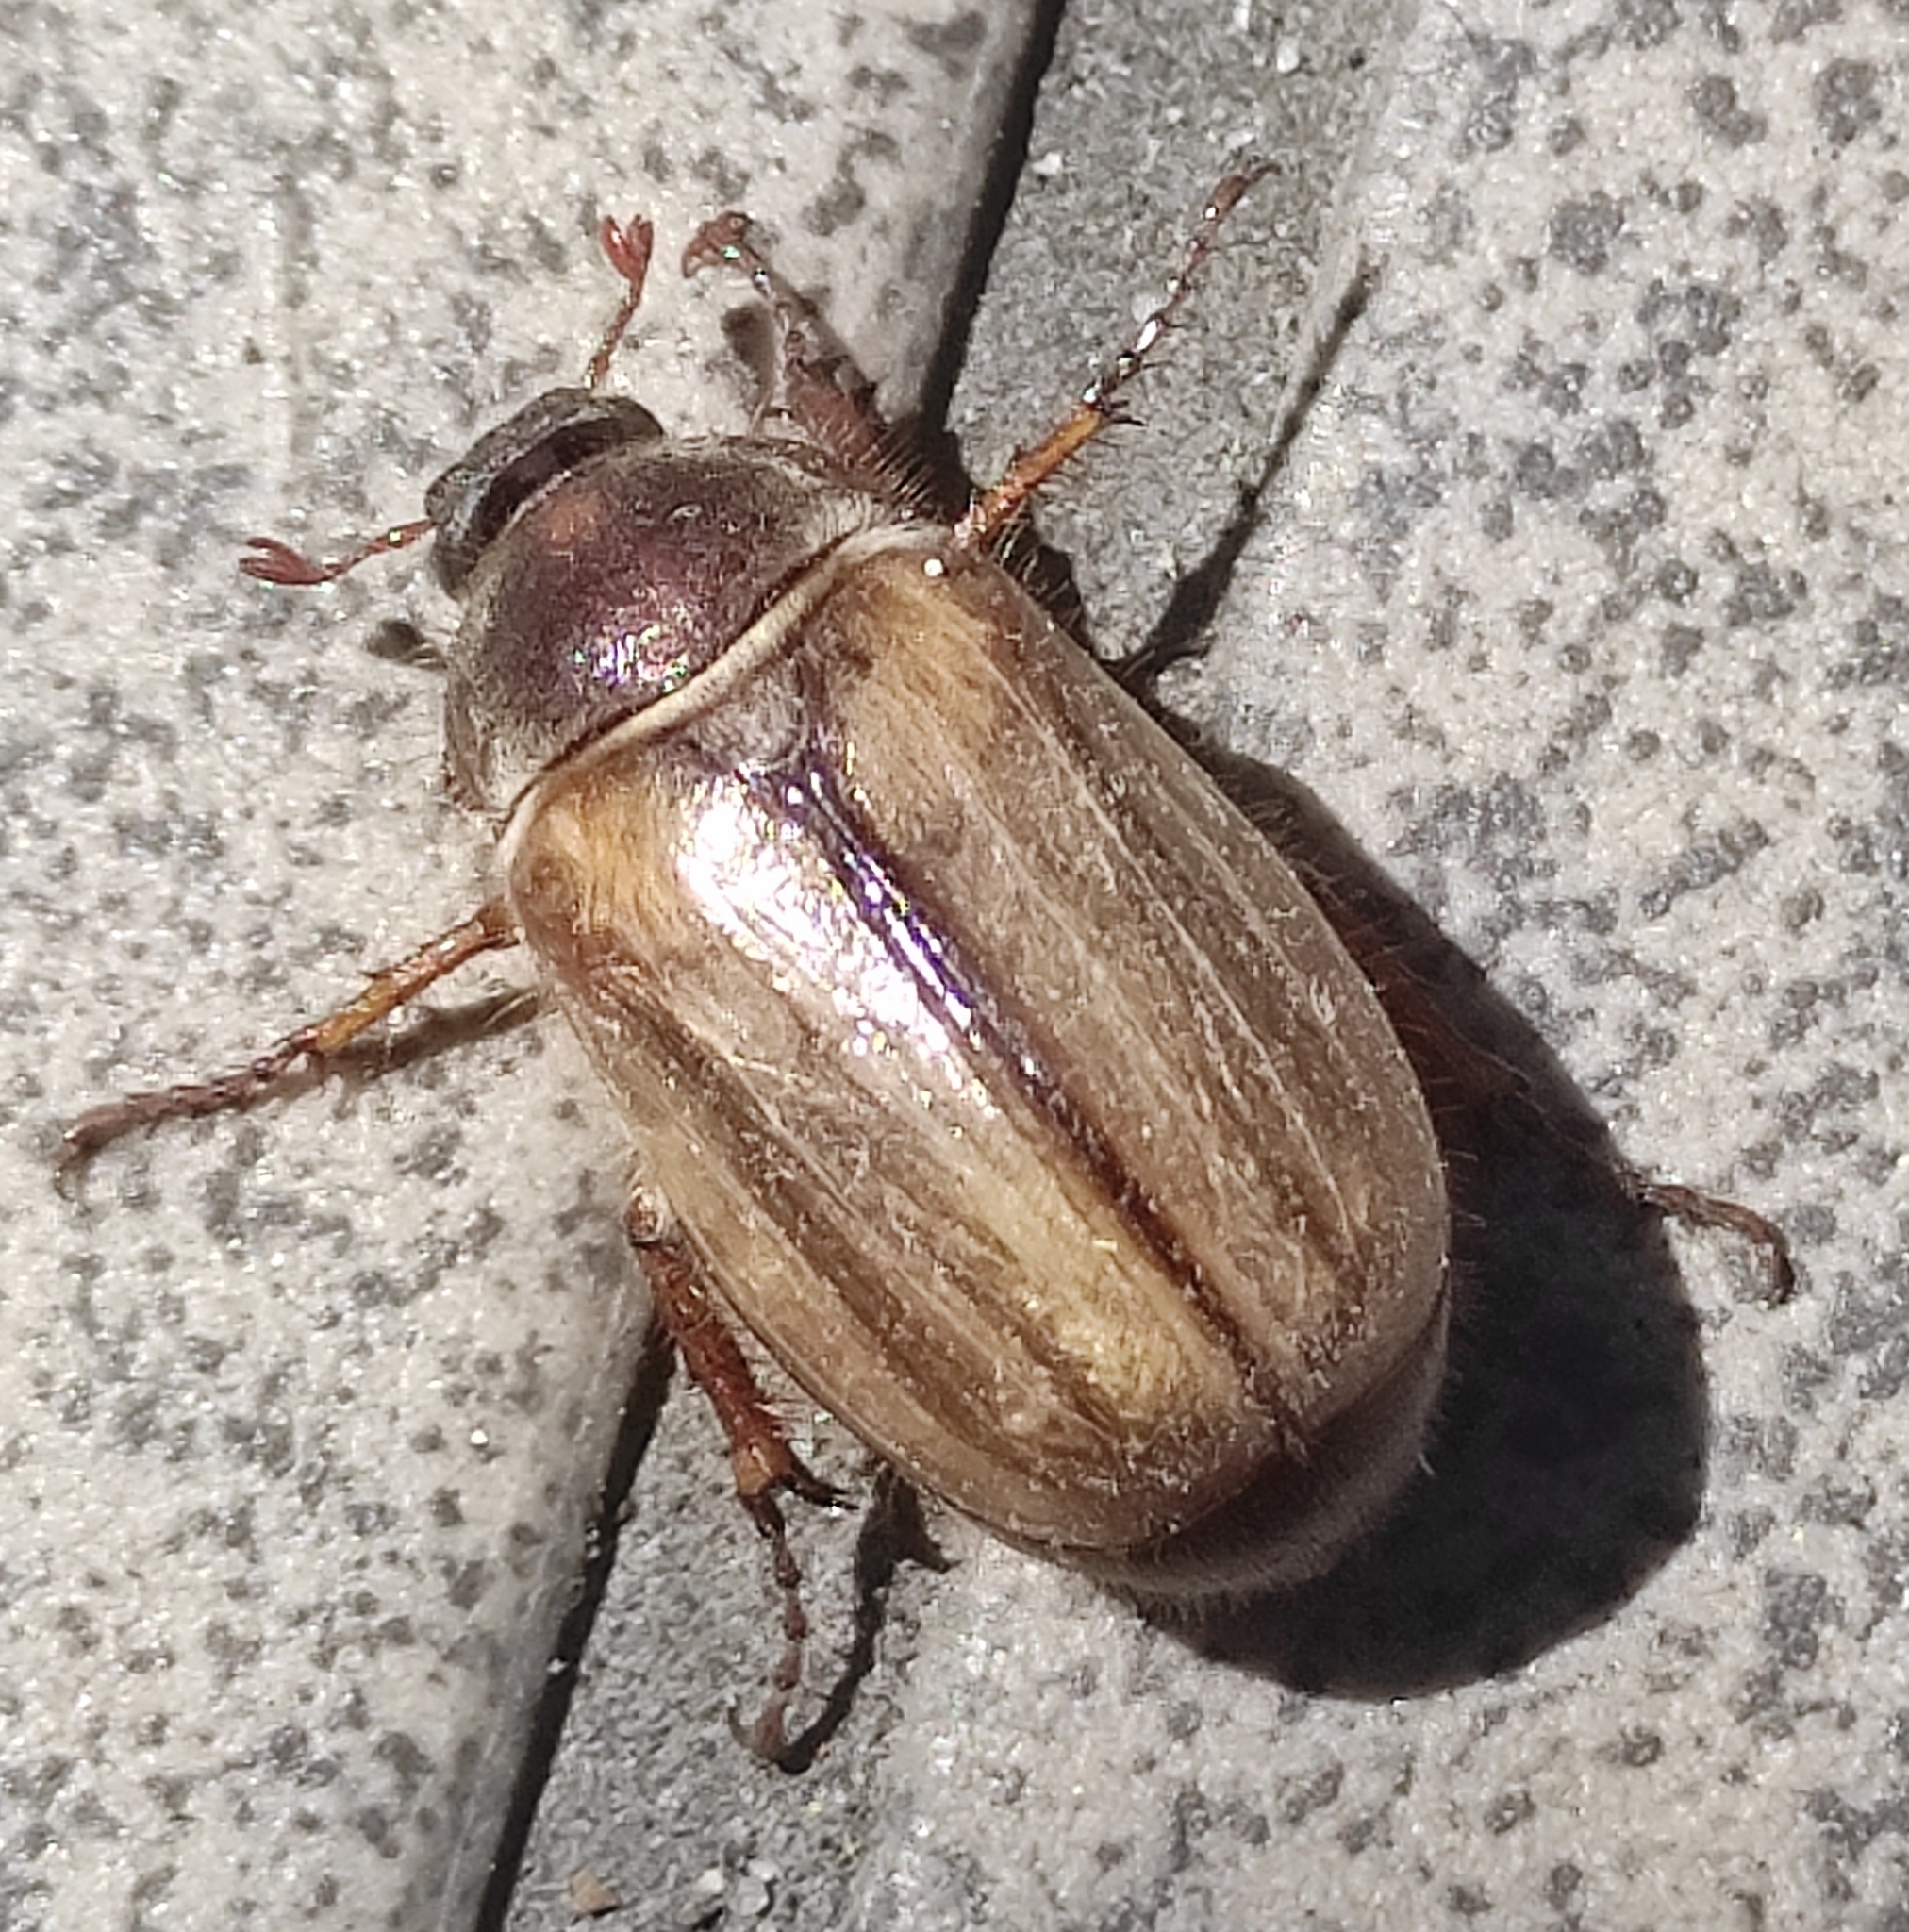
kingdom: Animalia
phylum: Arthropoda
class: Insecta
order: Coleoptera
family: Scarabaeidae
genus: Amphimallon
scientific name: Amphimallon solstitiale
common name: Summer chafer
